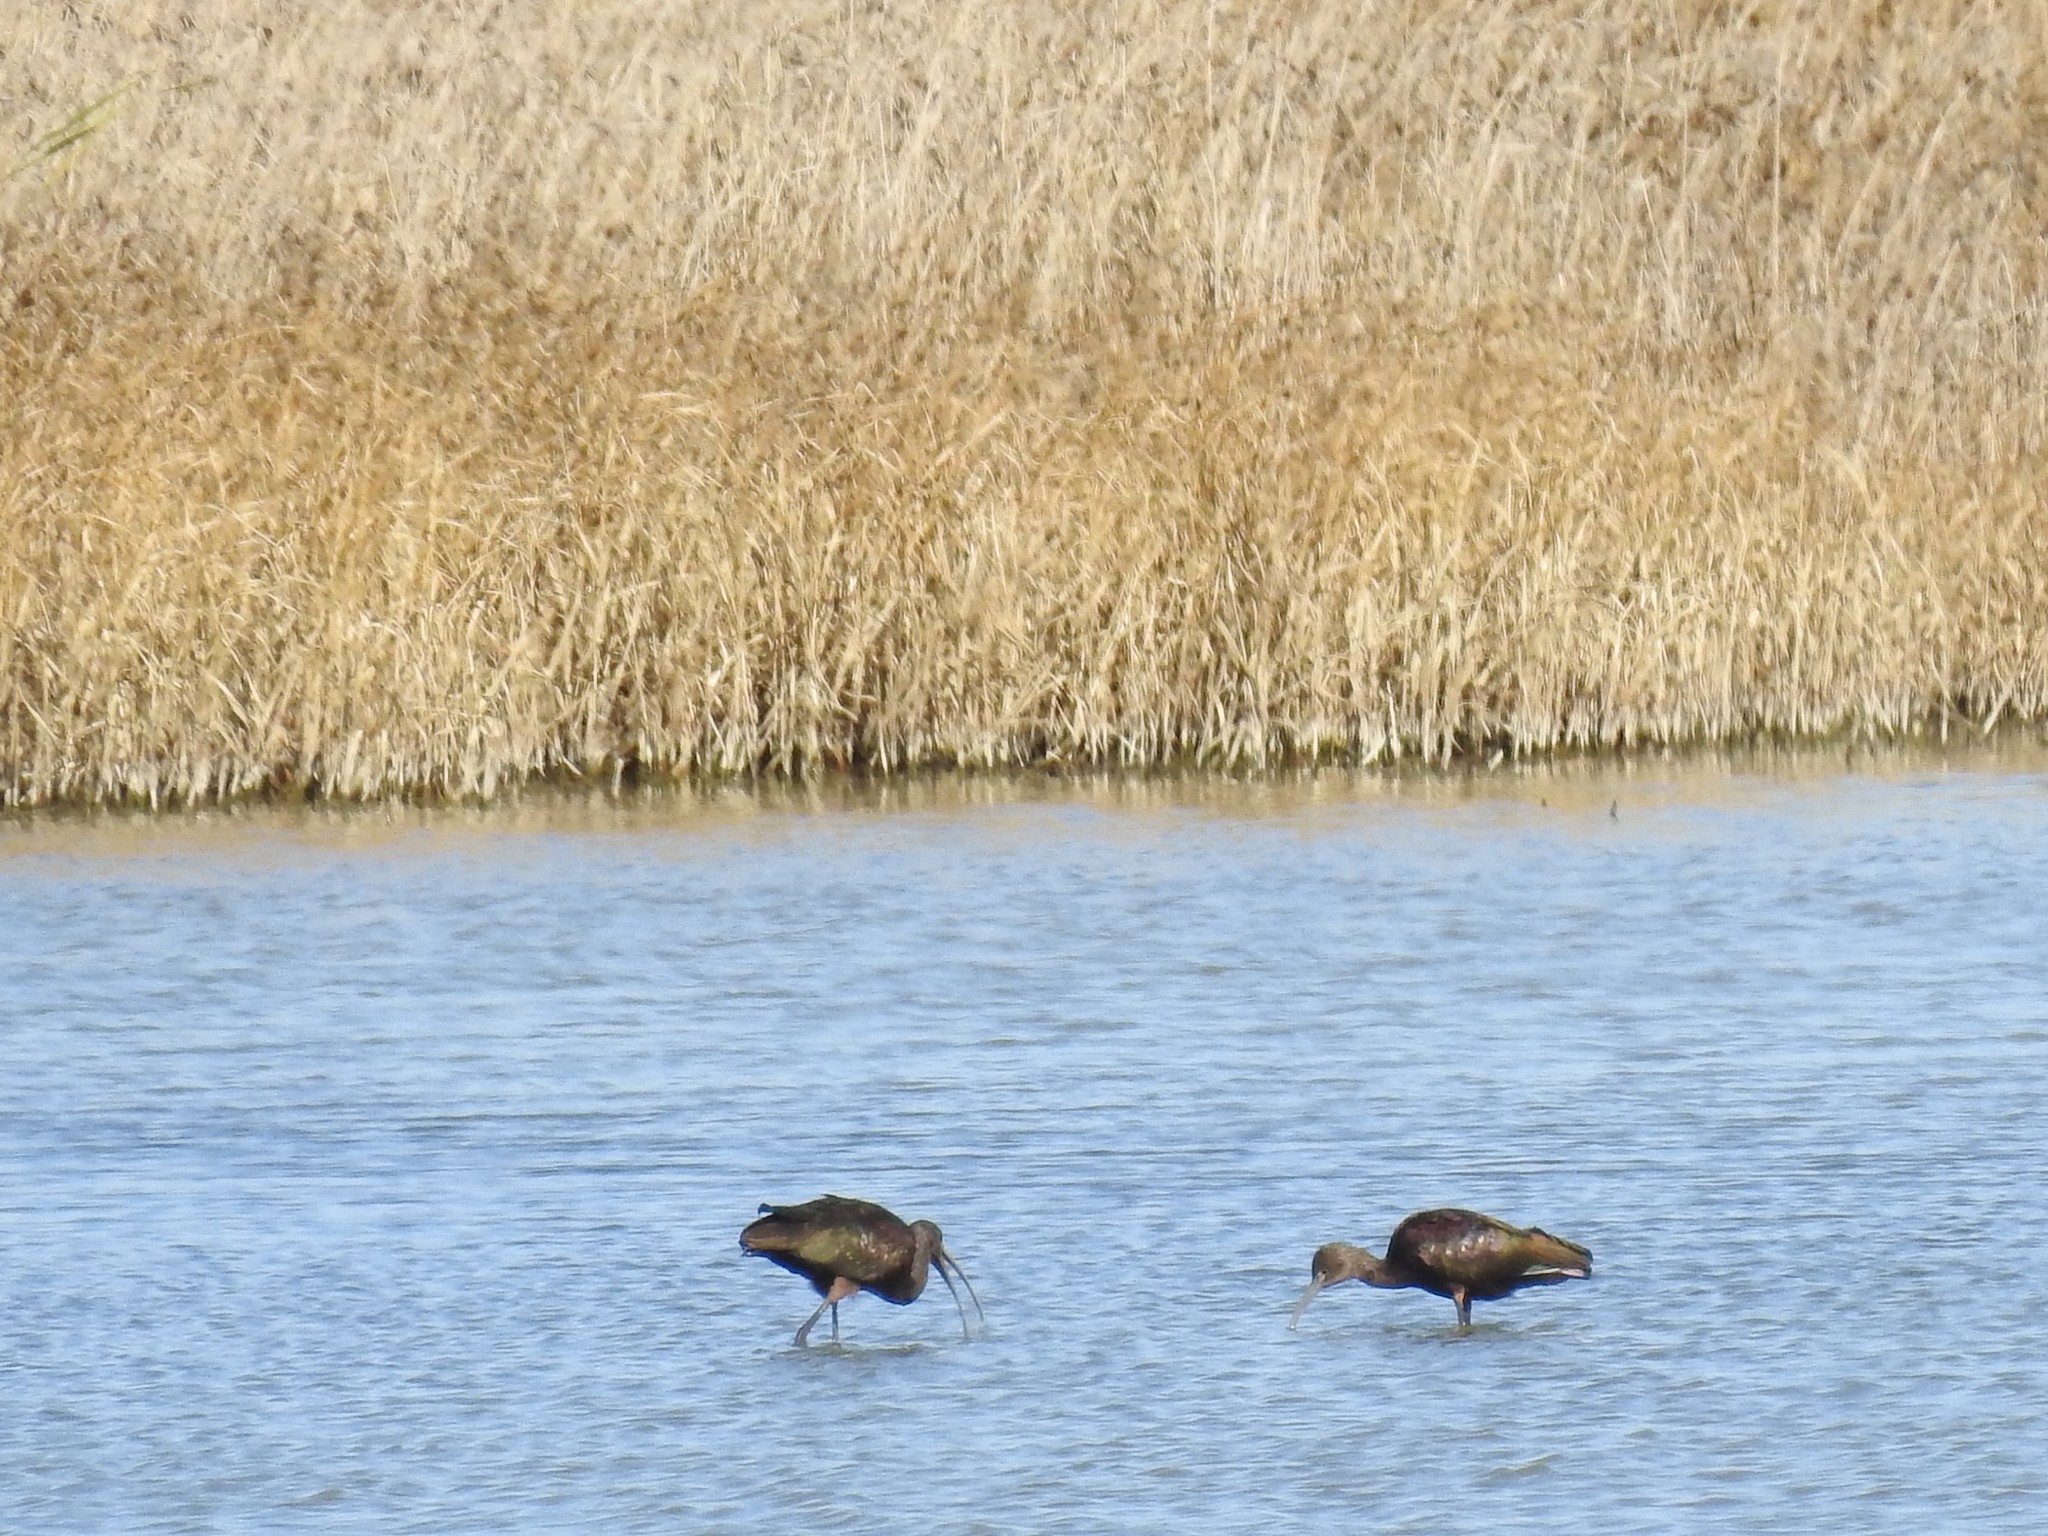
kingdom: Animalia
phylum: Chordata
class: Aves
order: Pelecaniformes
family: Threskiornithidae
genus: Plegadis
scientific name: Plegadis chihi
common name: White-faced ibis
